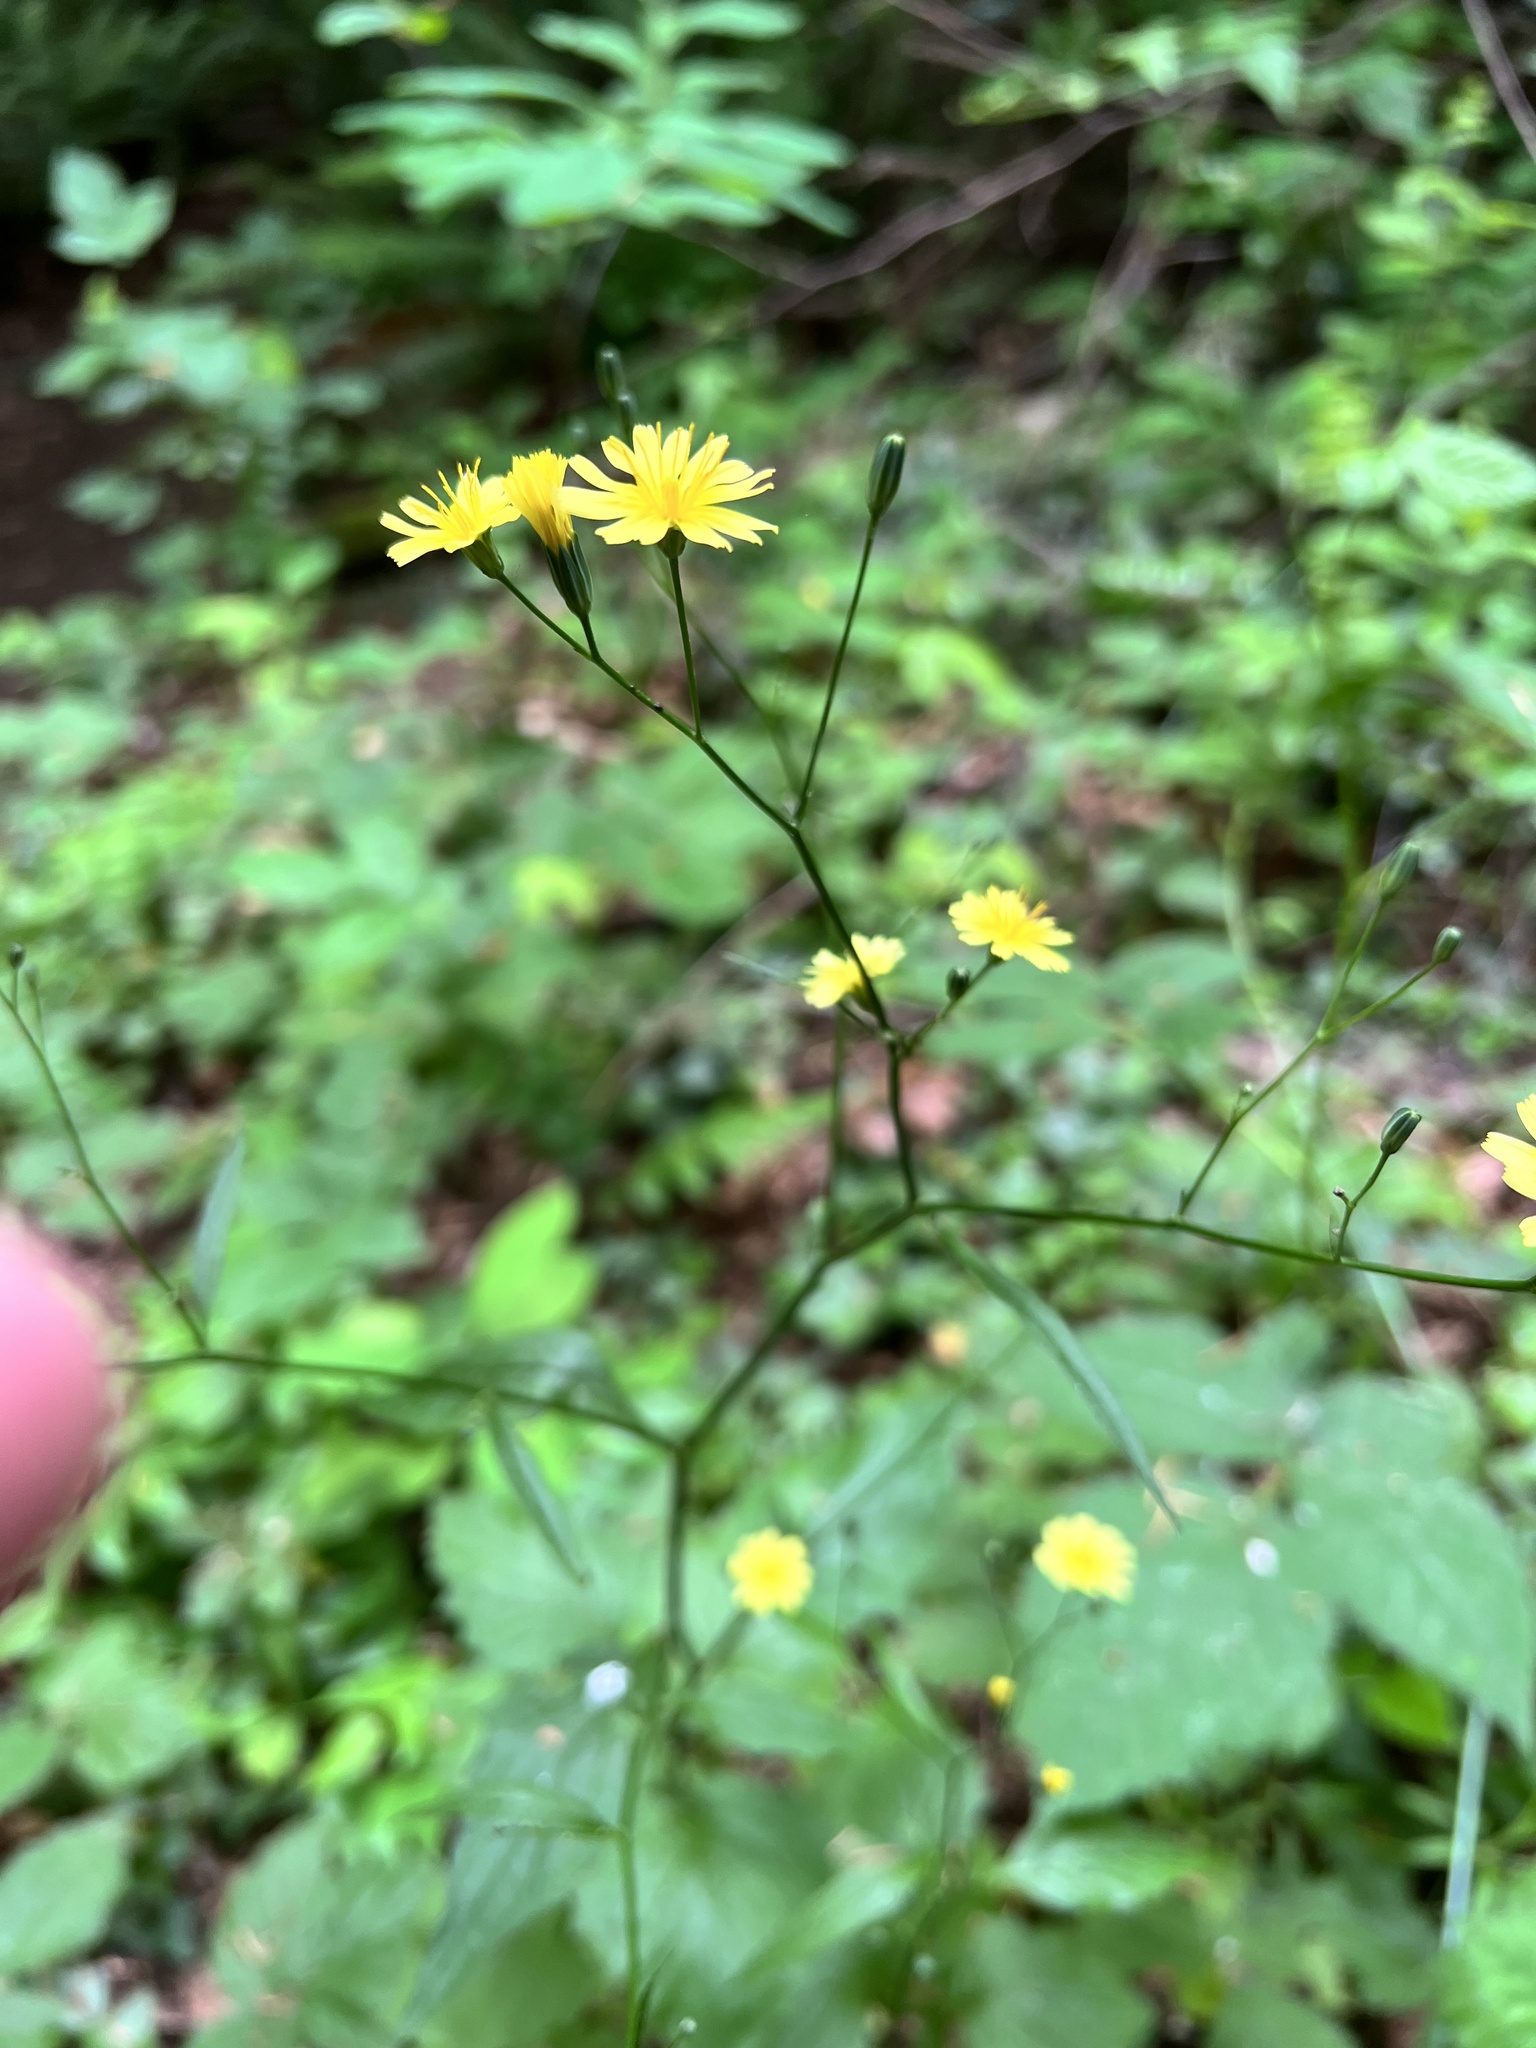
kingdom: Plantae
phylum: Tracheophyta
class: Magnoliopsida
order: Asterales
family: Asteraceae
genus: Lapsana
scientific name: Lapsana communis
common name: Nipplewort
